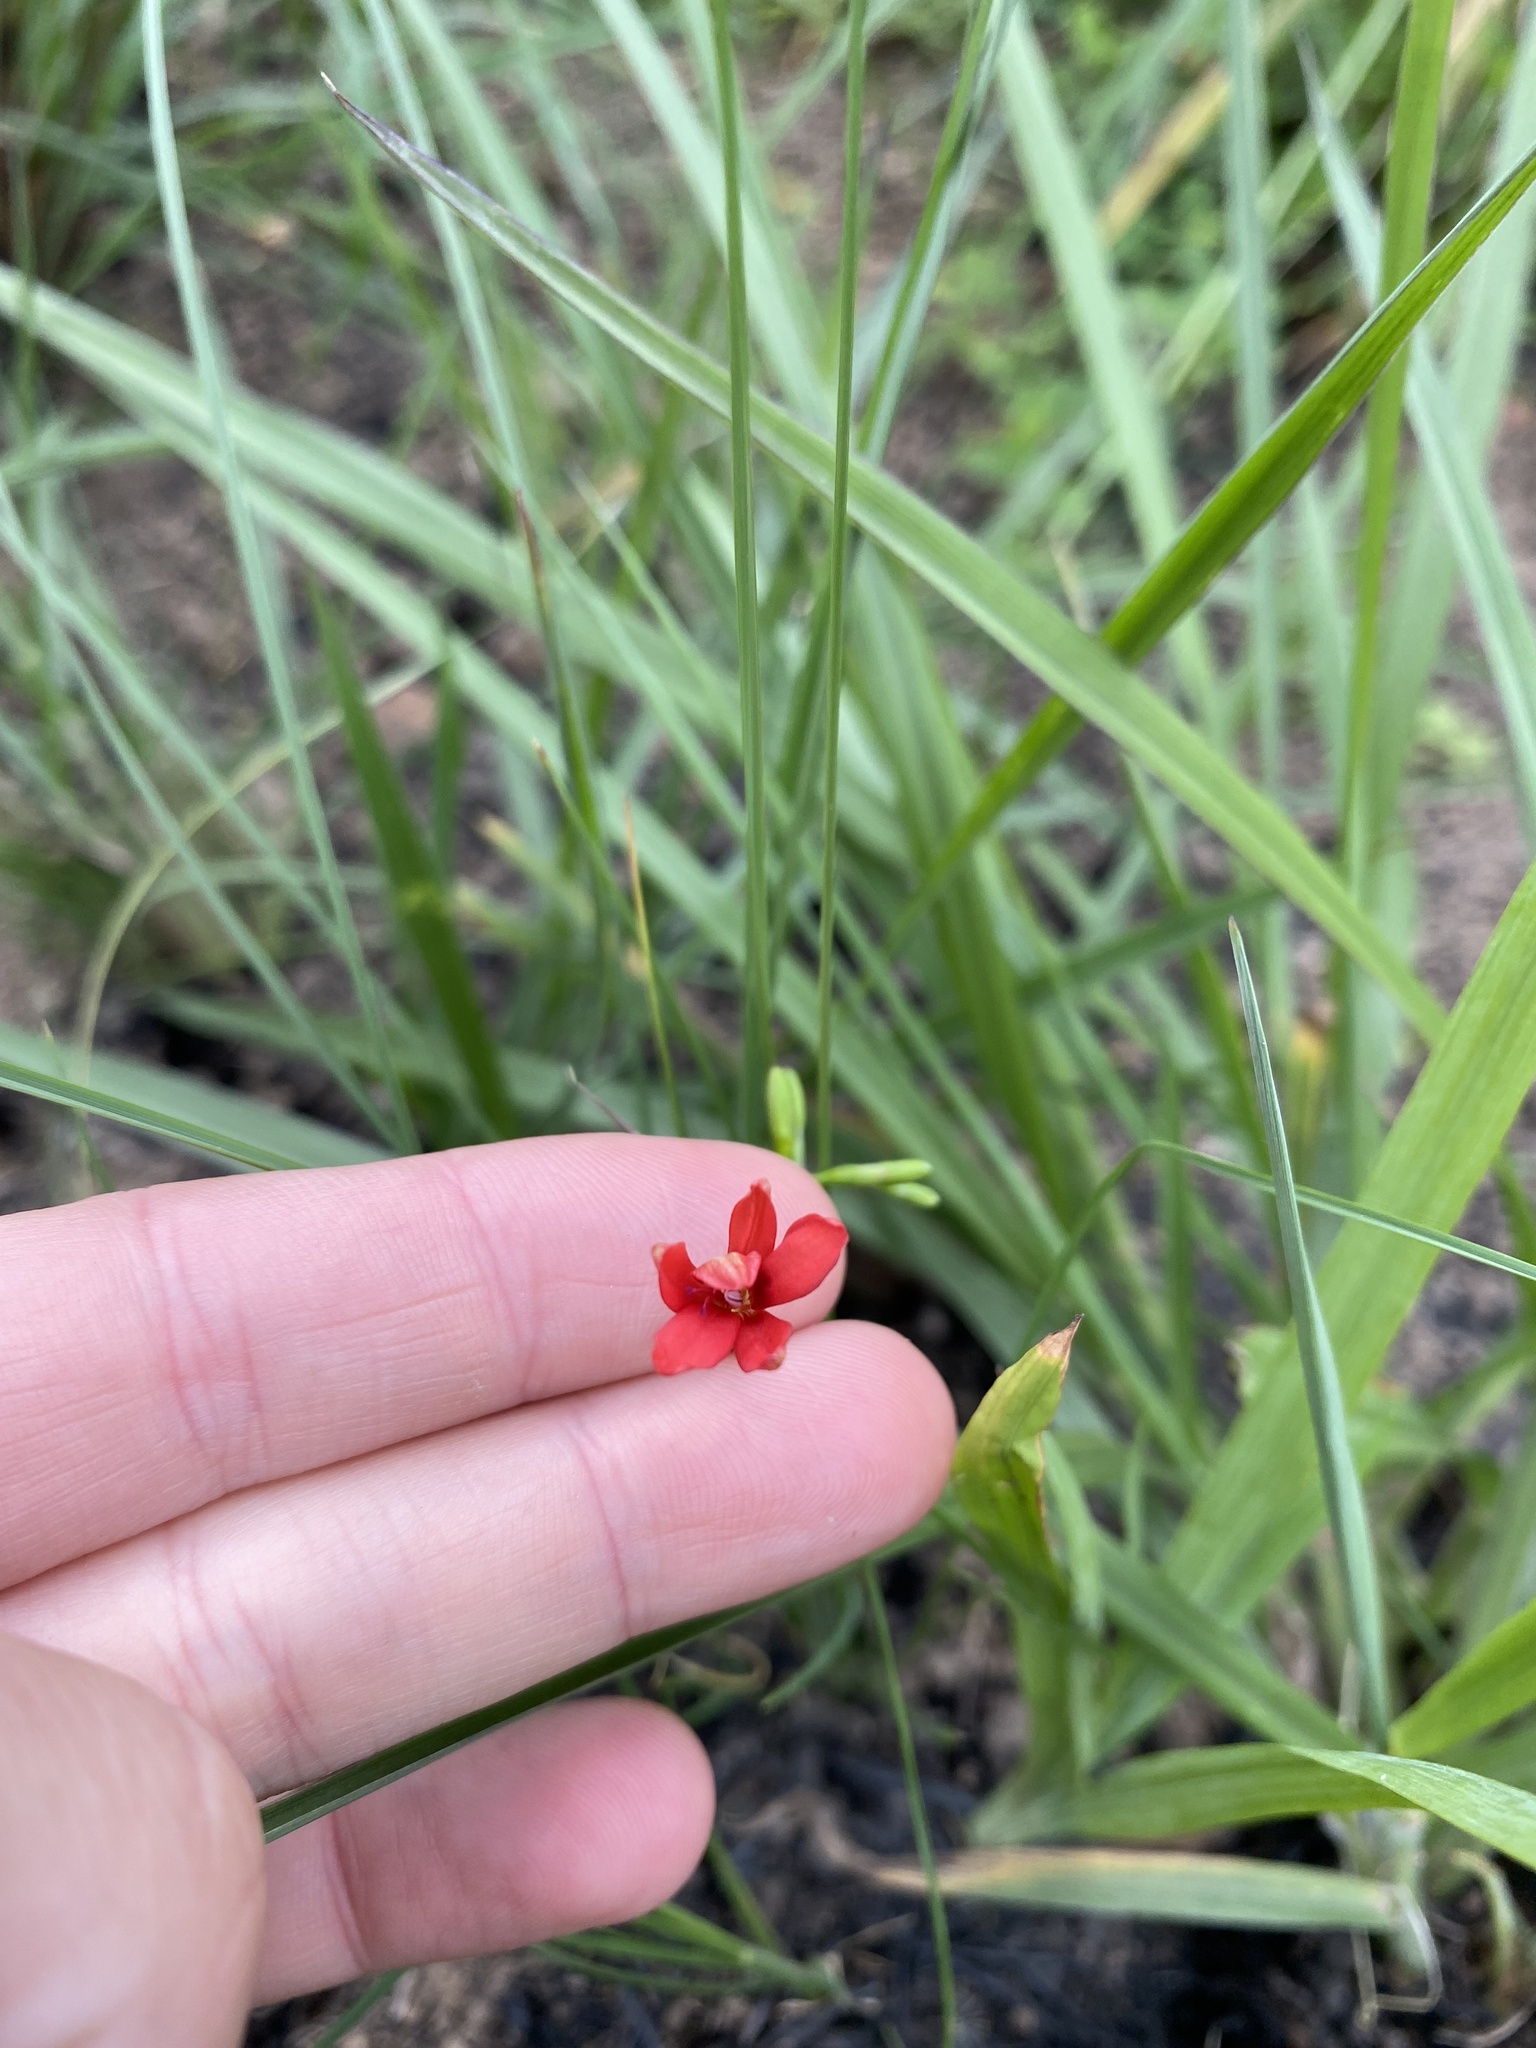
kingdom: Plantae
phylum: Tracheophyta
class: Liliopsida
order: Asparagales
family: Iridaceae
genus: Freesia
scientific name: Freesia laxa
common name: False freesia
